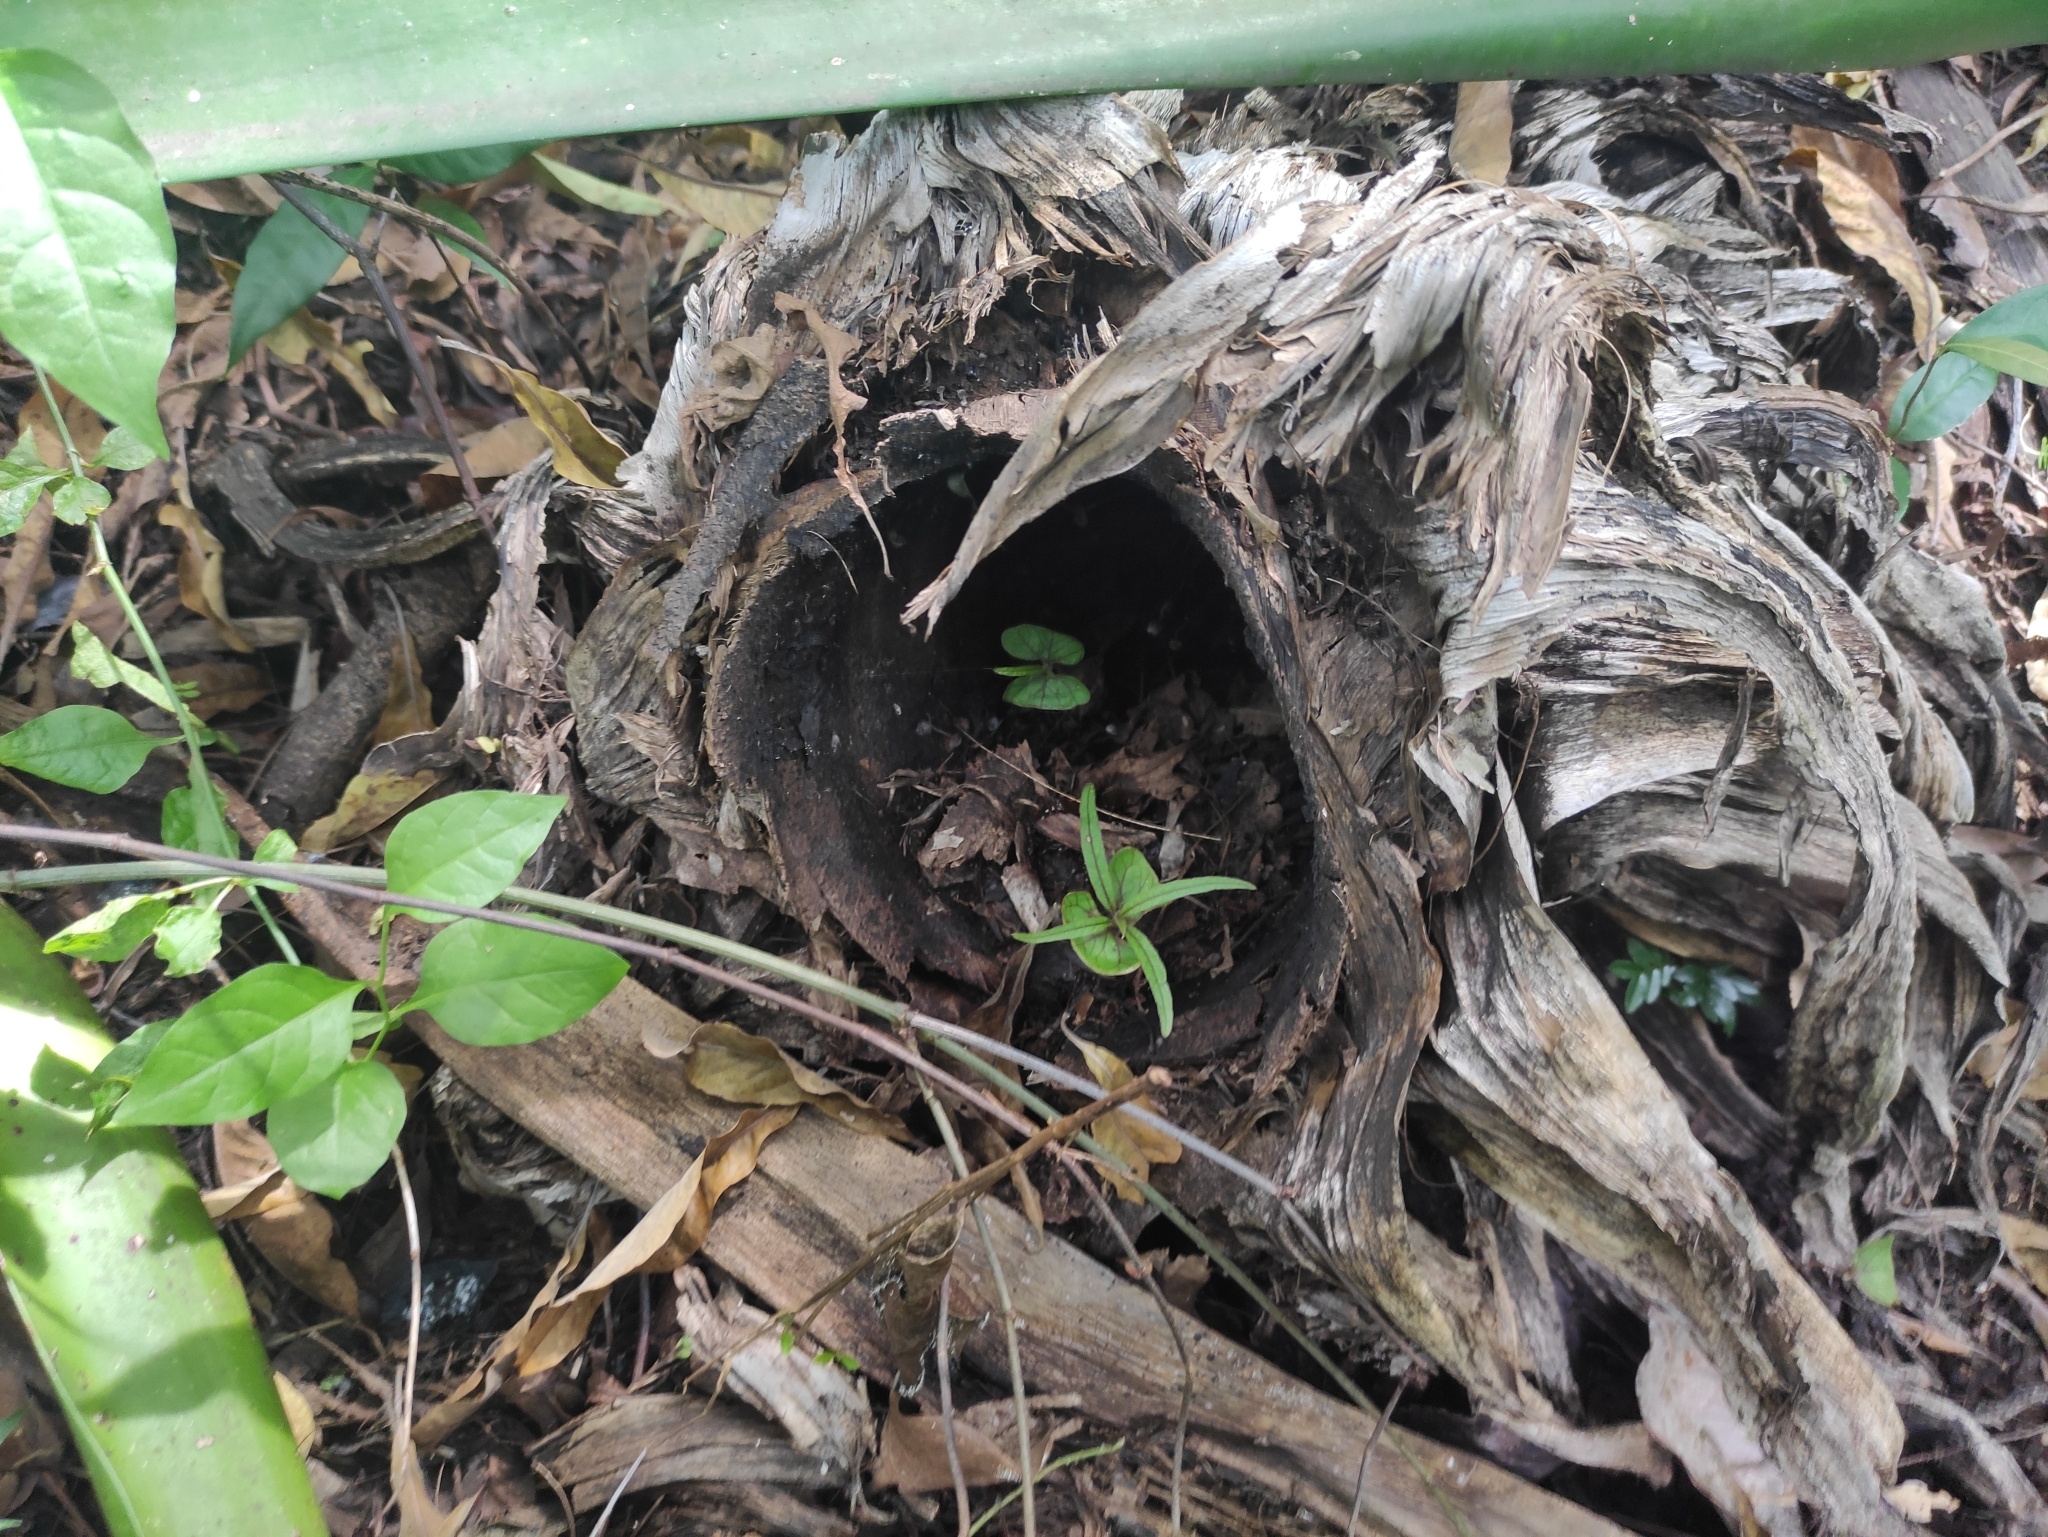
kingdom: Plantae
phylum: Tracheophyta
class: Magnoliopsida
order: Myrtales
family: Combretaceae
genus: Terminalia
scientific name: Terminalia bentzoe
